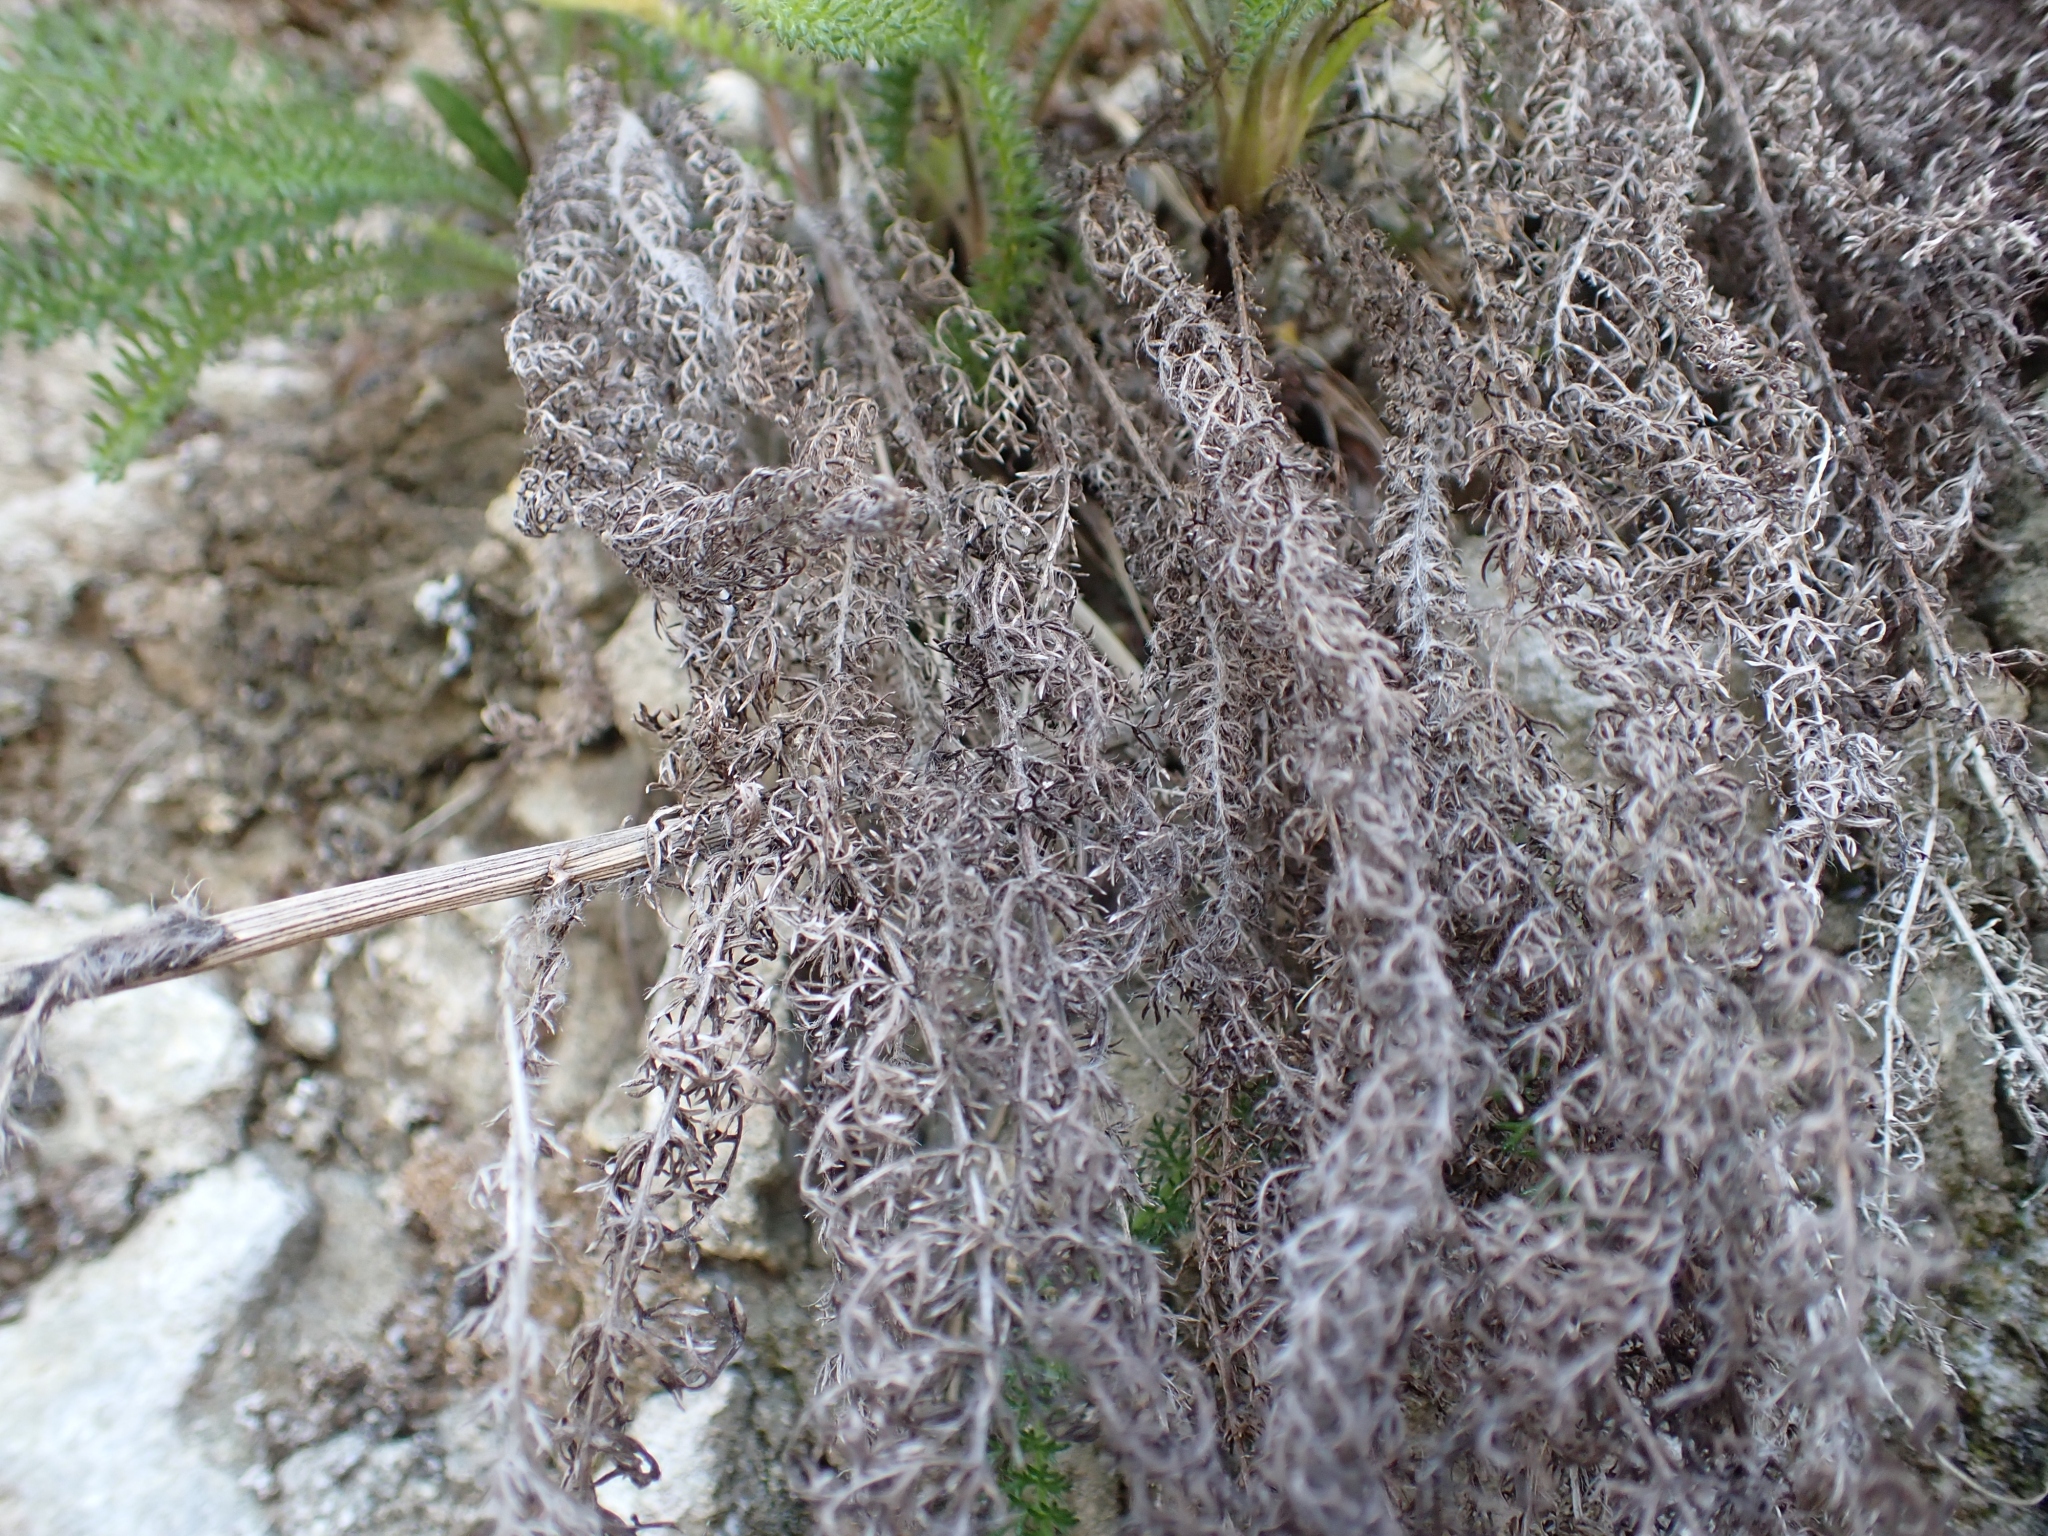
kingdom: Plantae
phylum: Tracheophyta
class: Magnoliopsida
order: Asterales
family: Asteraceae
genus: Achillea
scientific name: Achillea millefolium
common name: Yarrow
